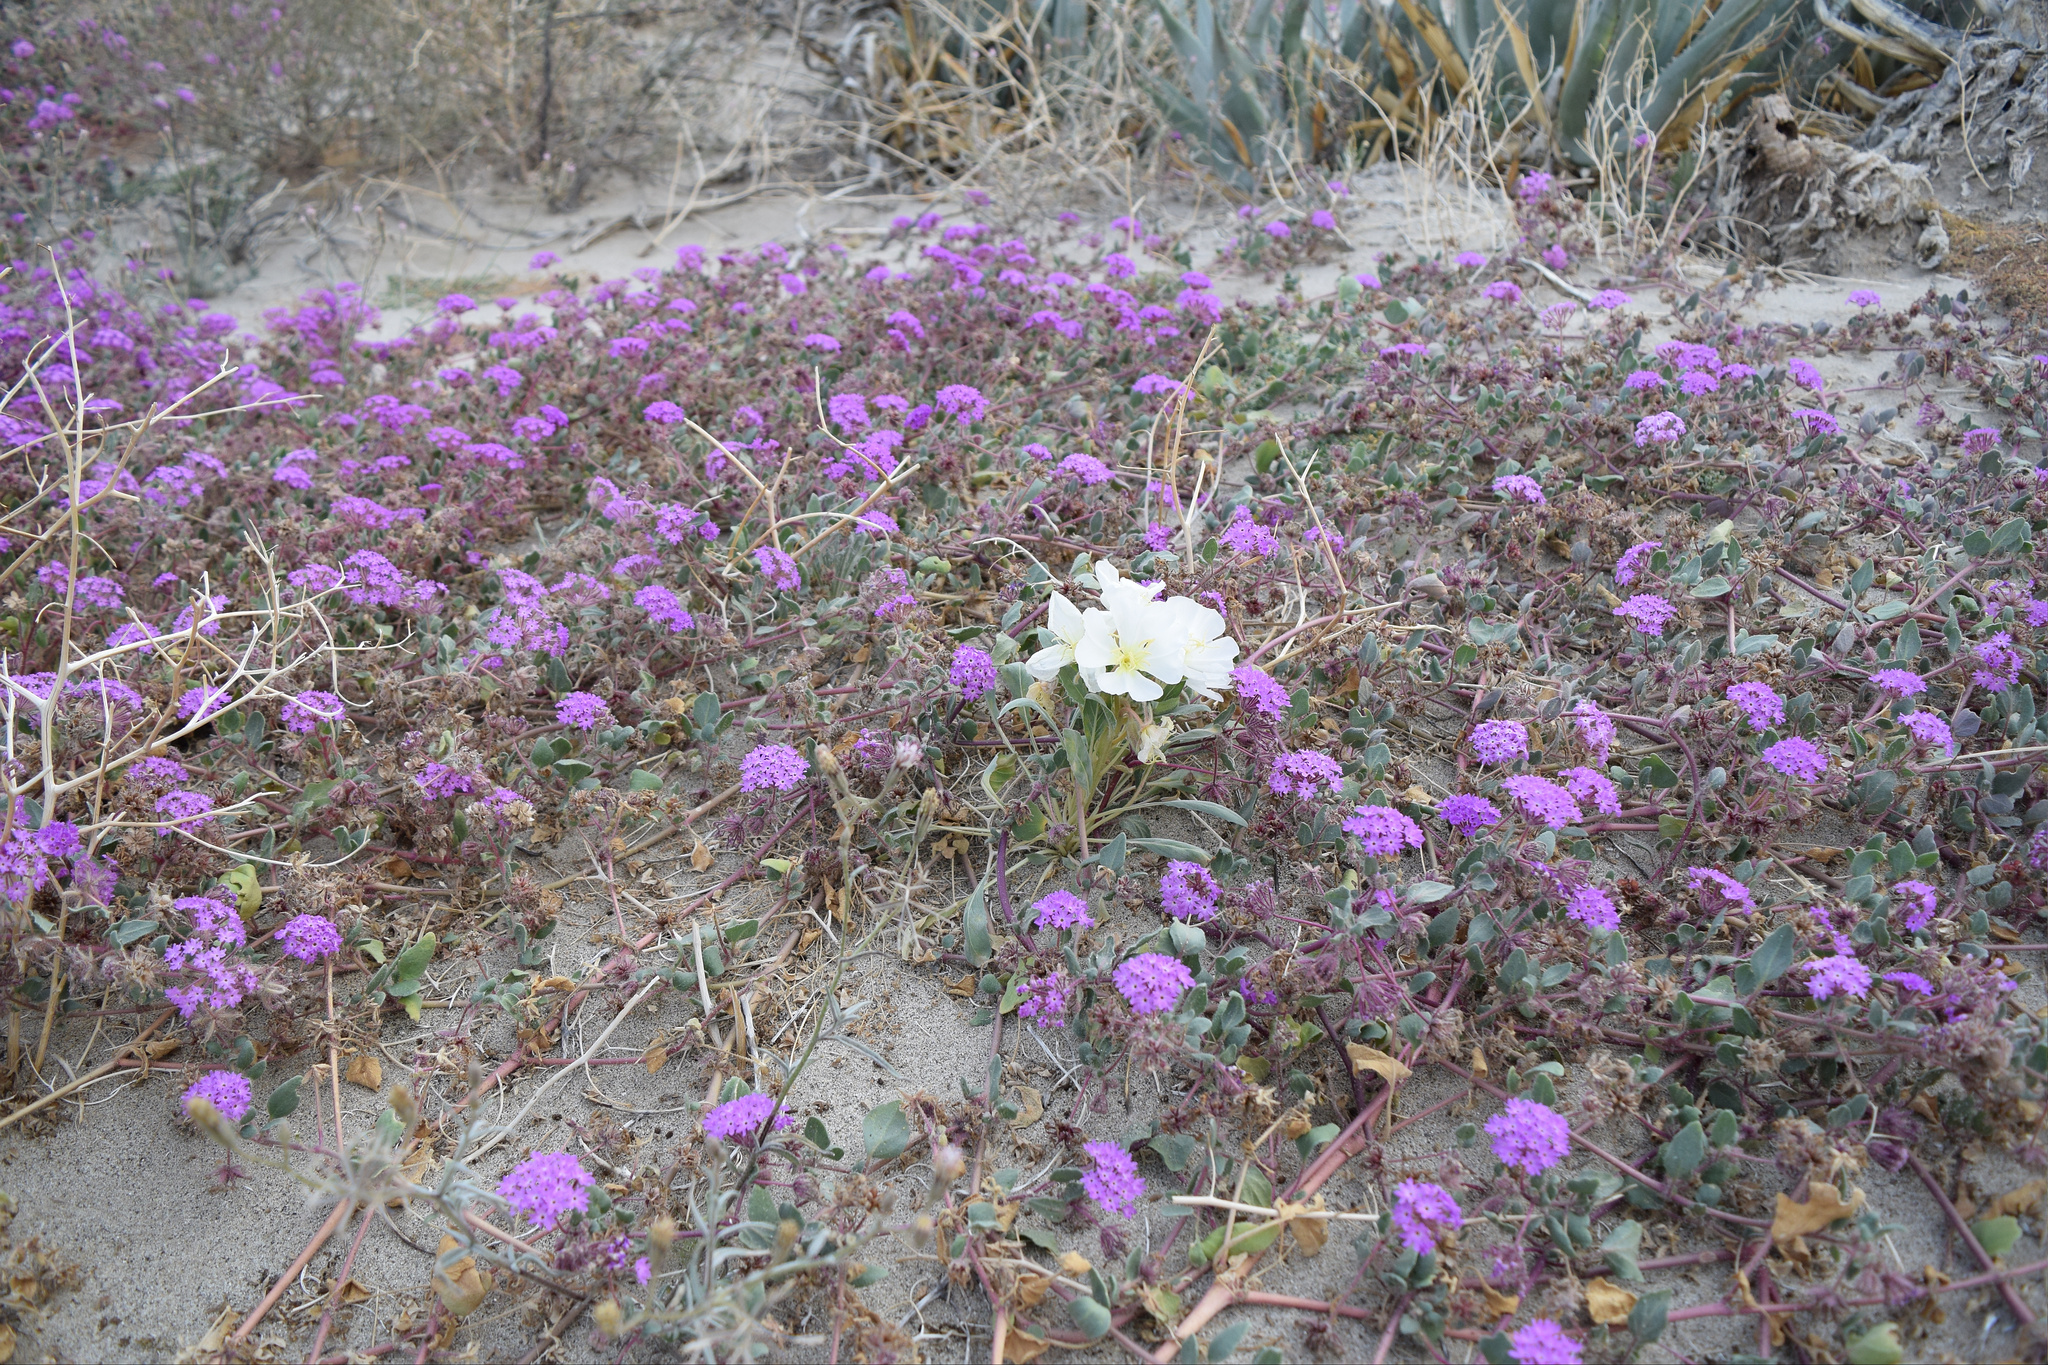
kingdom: Plantae
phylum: Tracheophyta
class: Magnoliopsida
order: Myrtales
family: Onagraceae
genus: Oenothera
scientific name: Oenothera deltoides
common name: Basket evening-primrose
